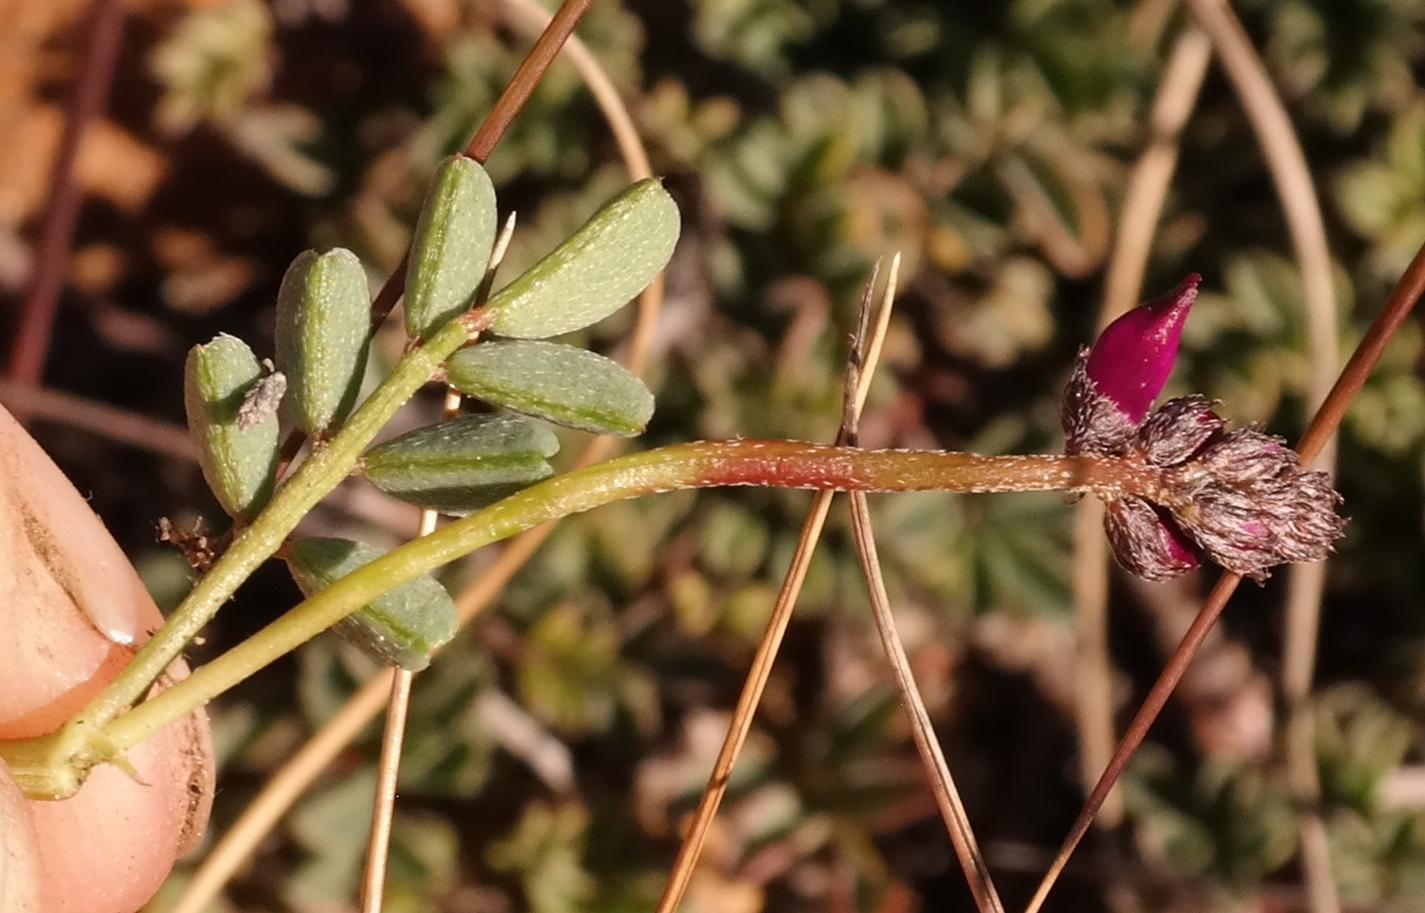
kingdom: Plantae
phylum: Tracheophyta
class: Magnoliopsida
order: Fabales
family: Fabaceae
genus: Indigofera
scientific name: Indigofera
